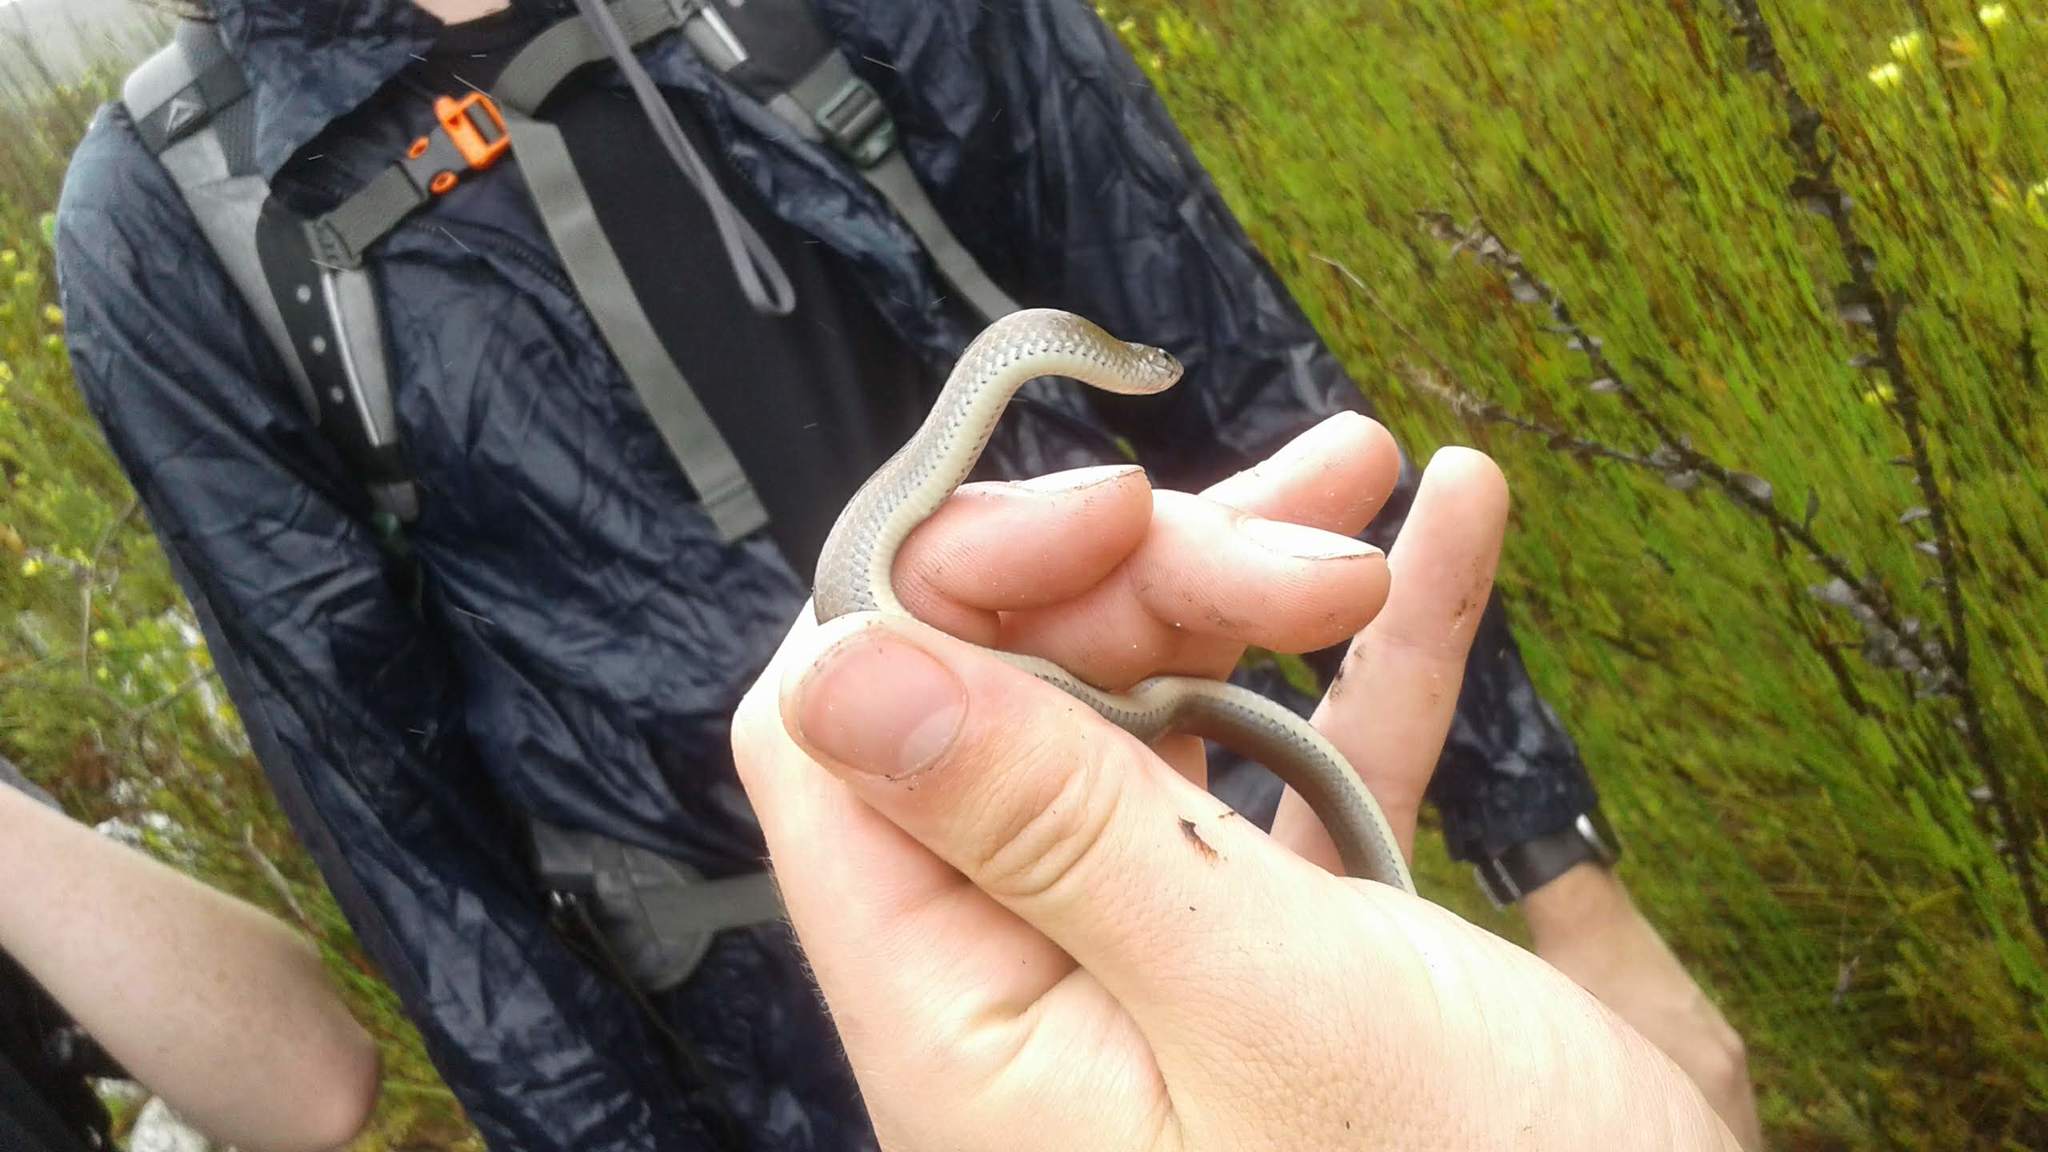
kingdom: Animalia
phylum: Chordata
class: Squamata
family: Pseudoxyrhophiidae
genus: Duberria
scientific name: Duberria lutrix
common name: Common slug eater
